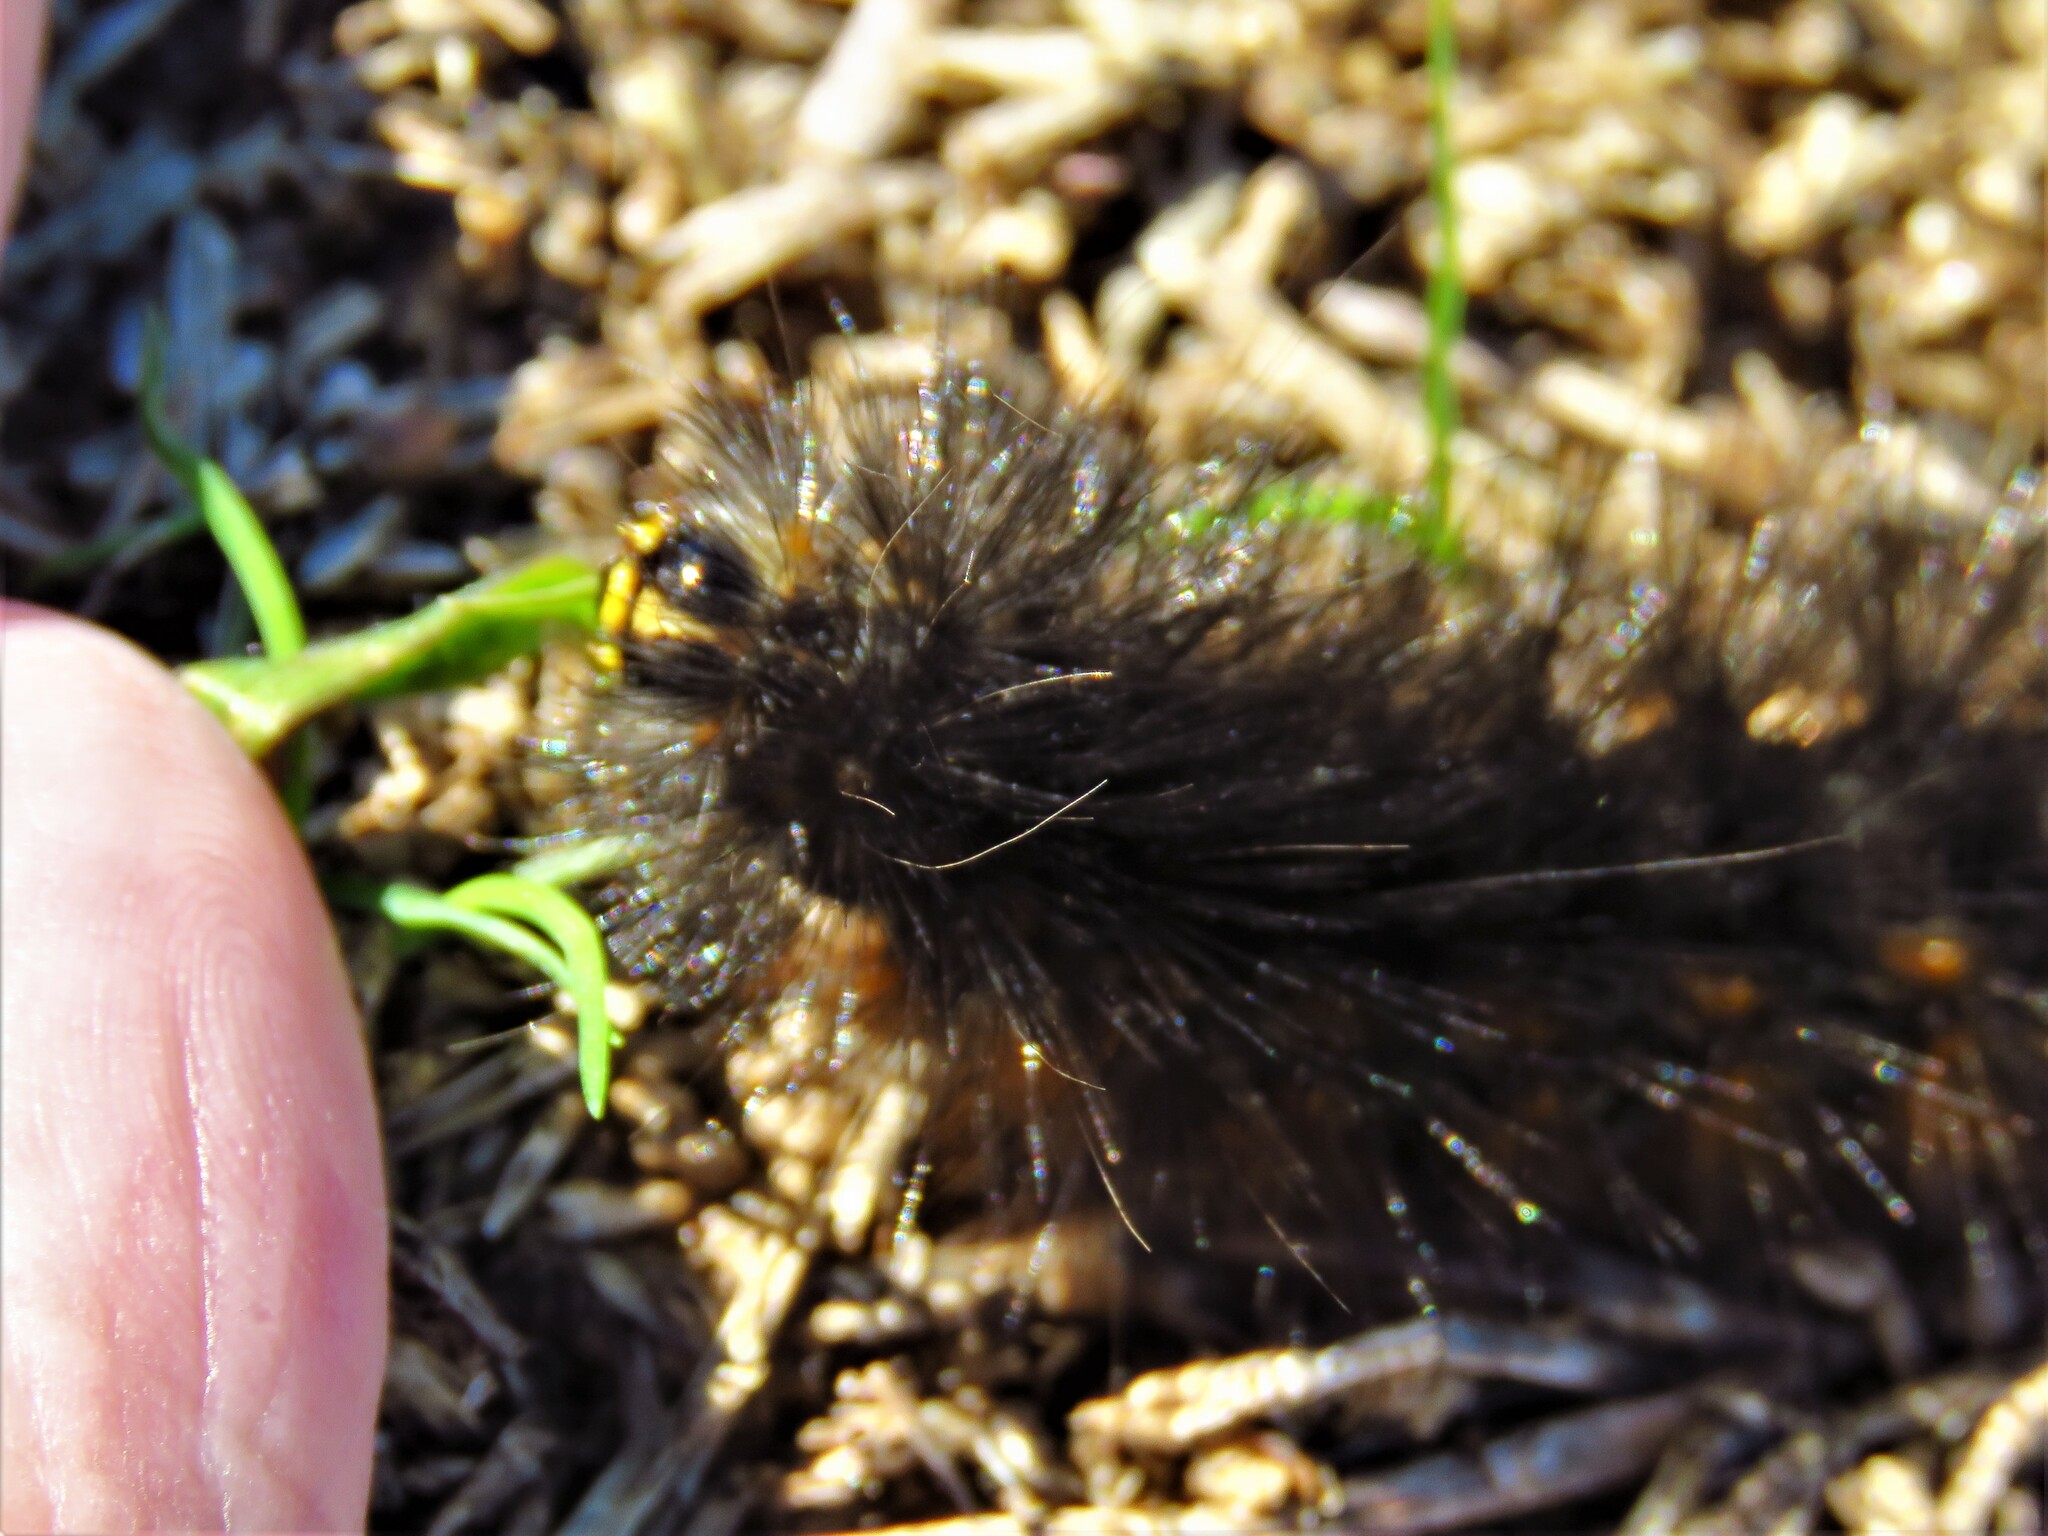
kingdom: Animalia
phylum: Arthropoda
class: Insecta
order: Lepidoptera
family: Erebidae
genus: Estigmene
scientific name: Estigmene acrea
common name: Salt marsh moth
